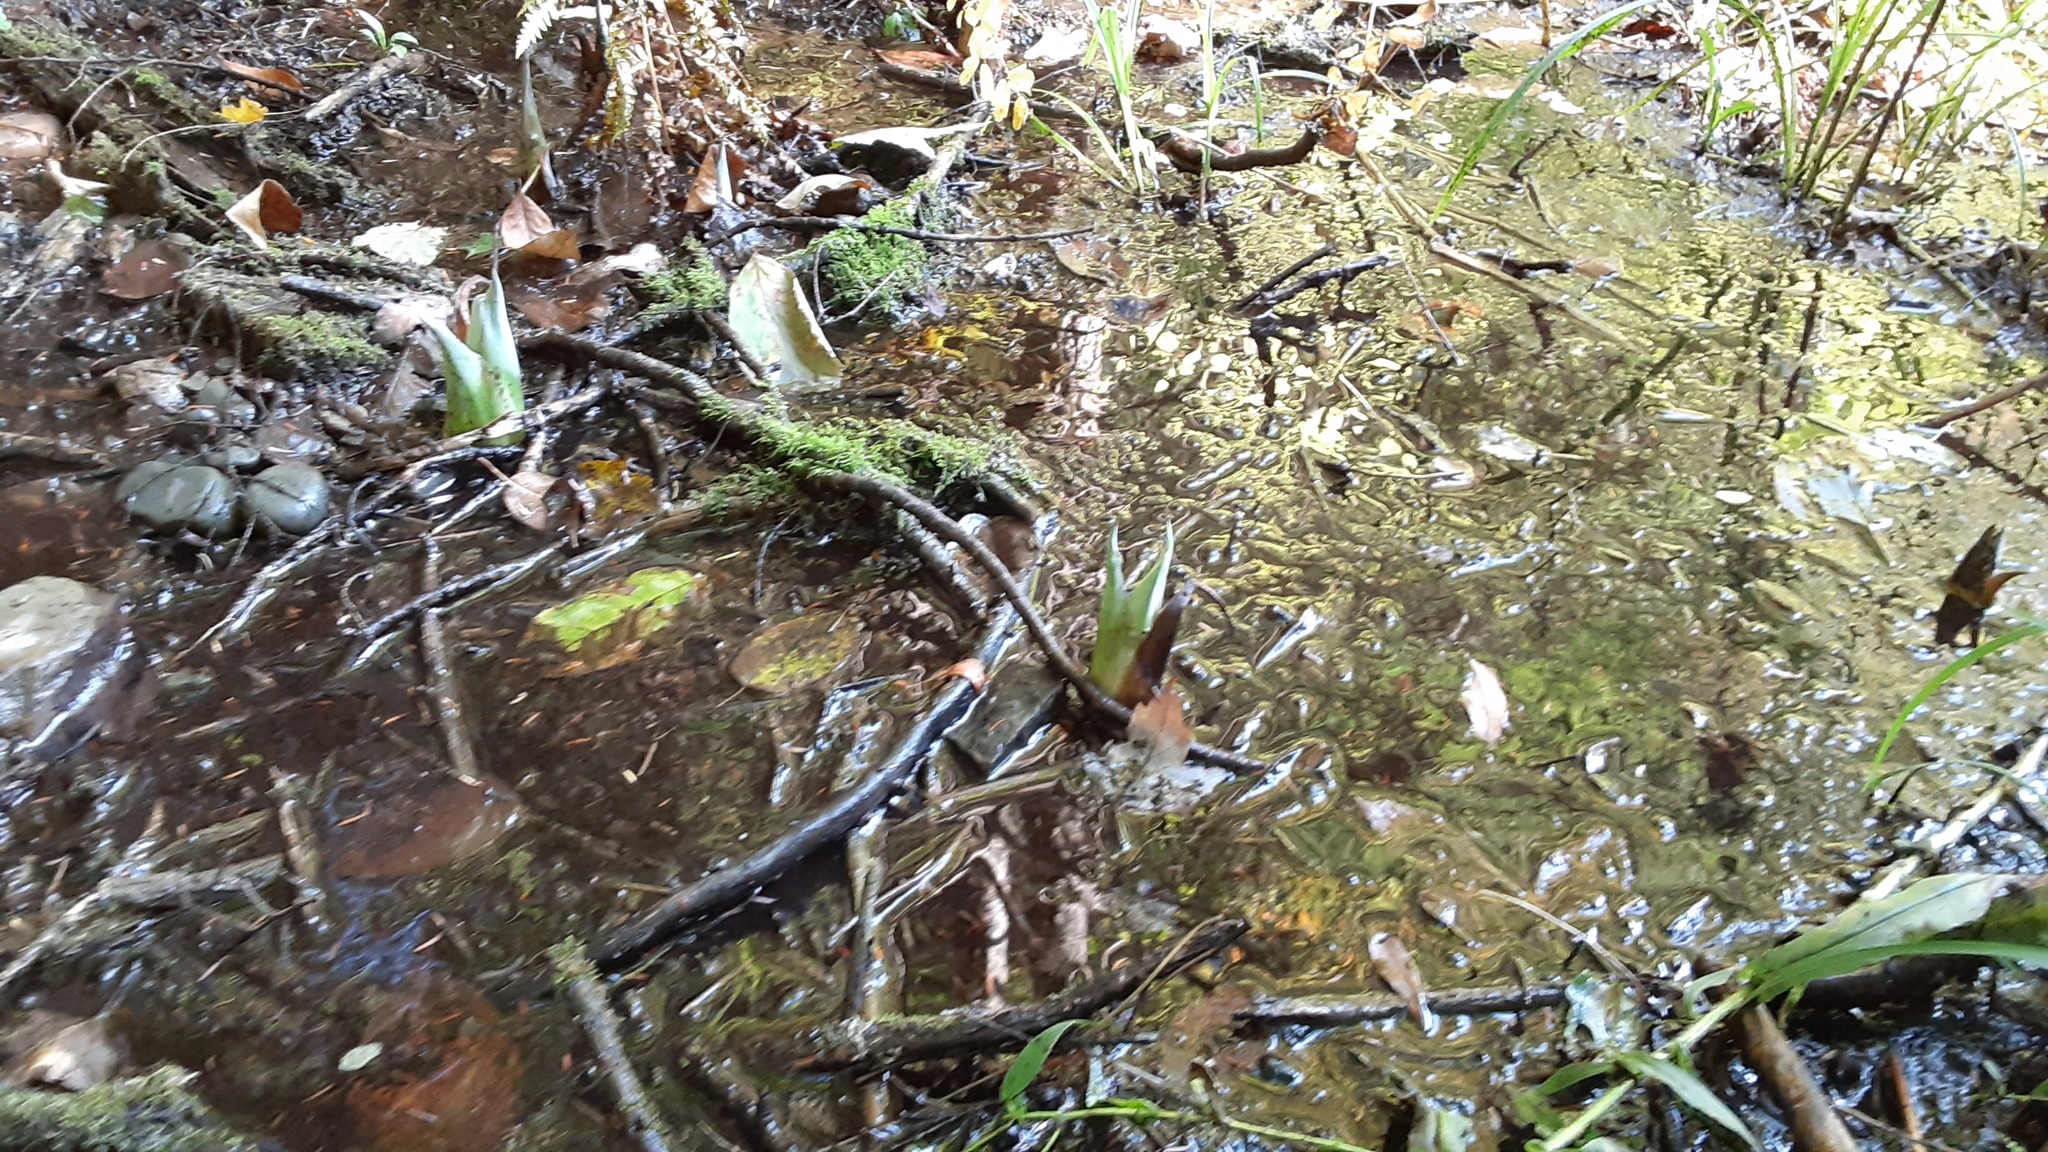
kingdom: Plantae
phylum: Tracheophyta
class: Liliopsida
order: Alismatales
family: Araceae
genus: Symplocarpus
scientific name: Symplocarpus foetidus
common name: Eastern skunk cabbage
